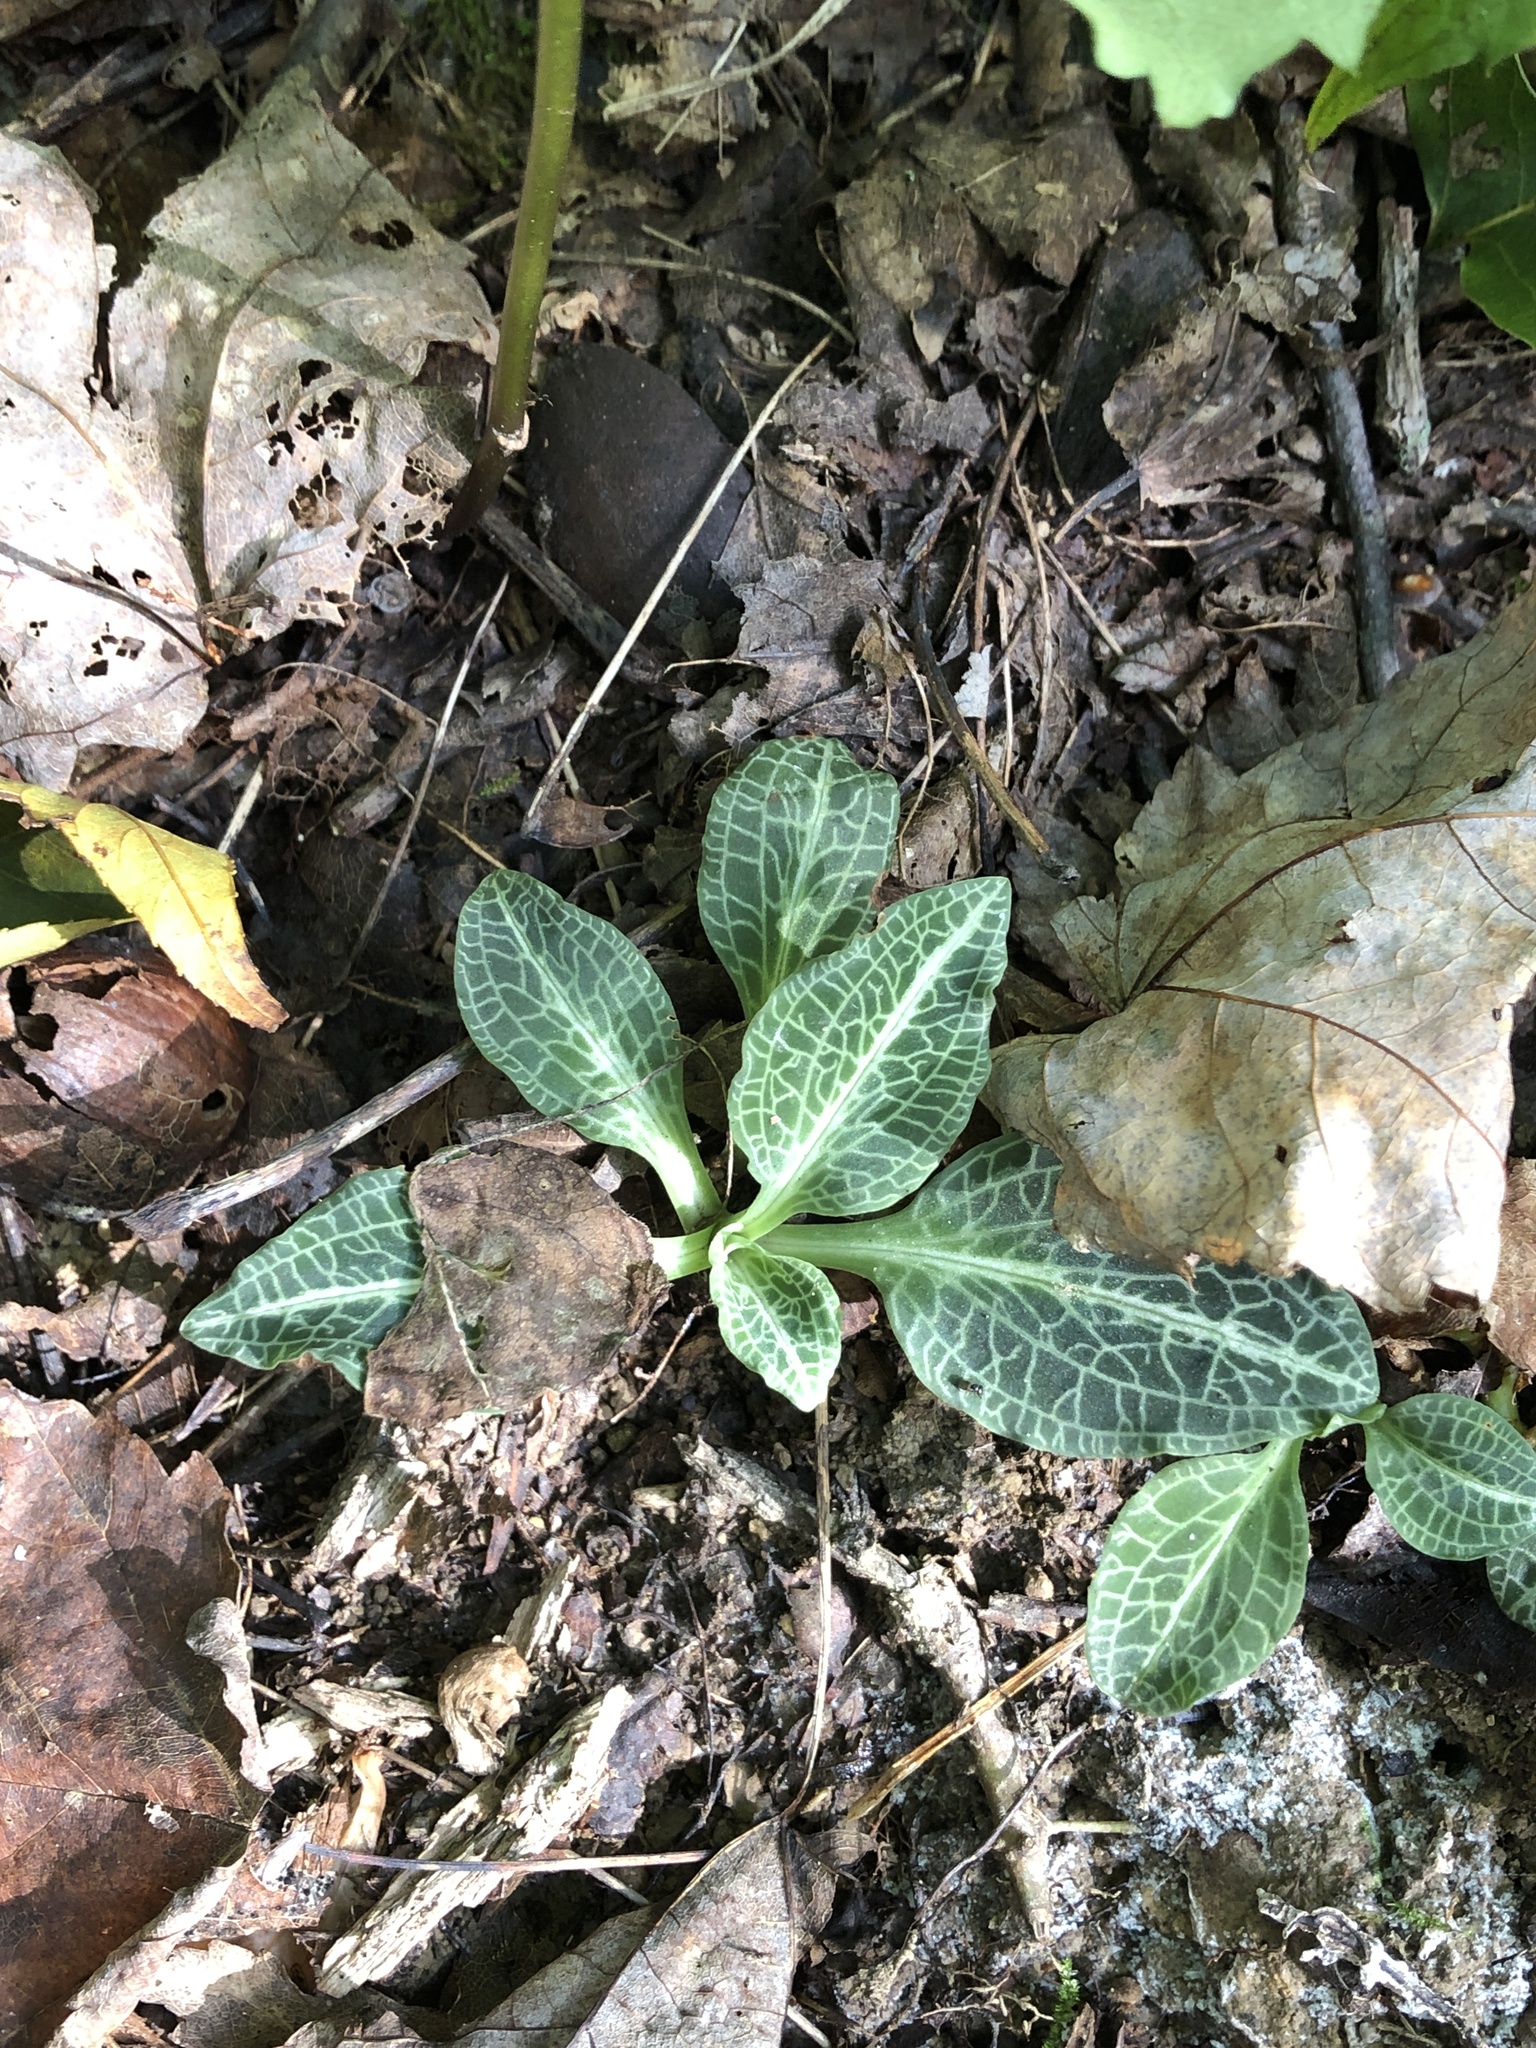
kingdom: Plantae
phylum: Tracheophyta
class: Liliopsida
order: Asparagales
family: Orchidaceae
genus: Goodyera
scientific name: Goodyera pubescens
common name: Downy rattlesnake-plantain
